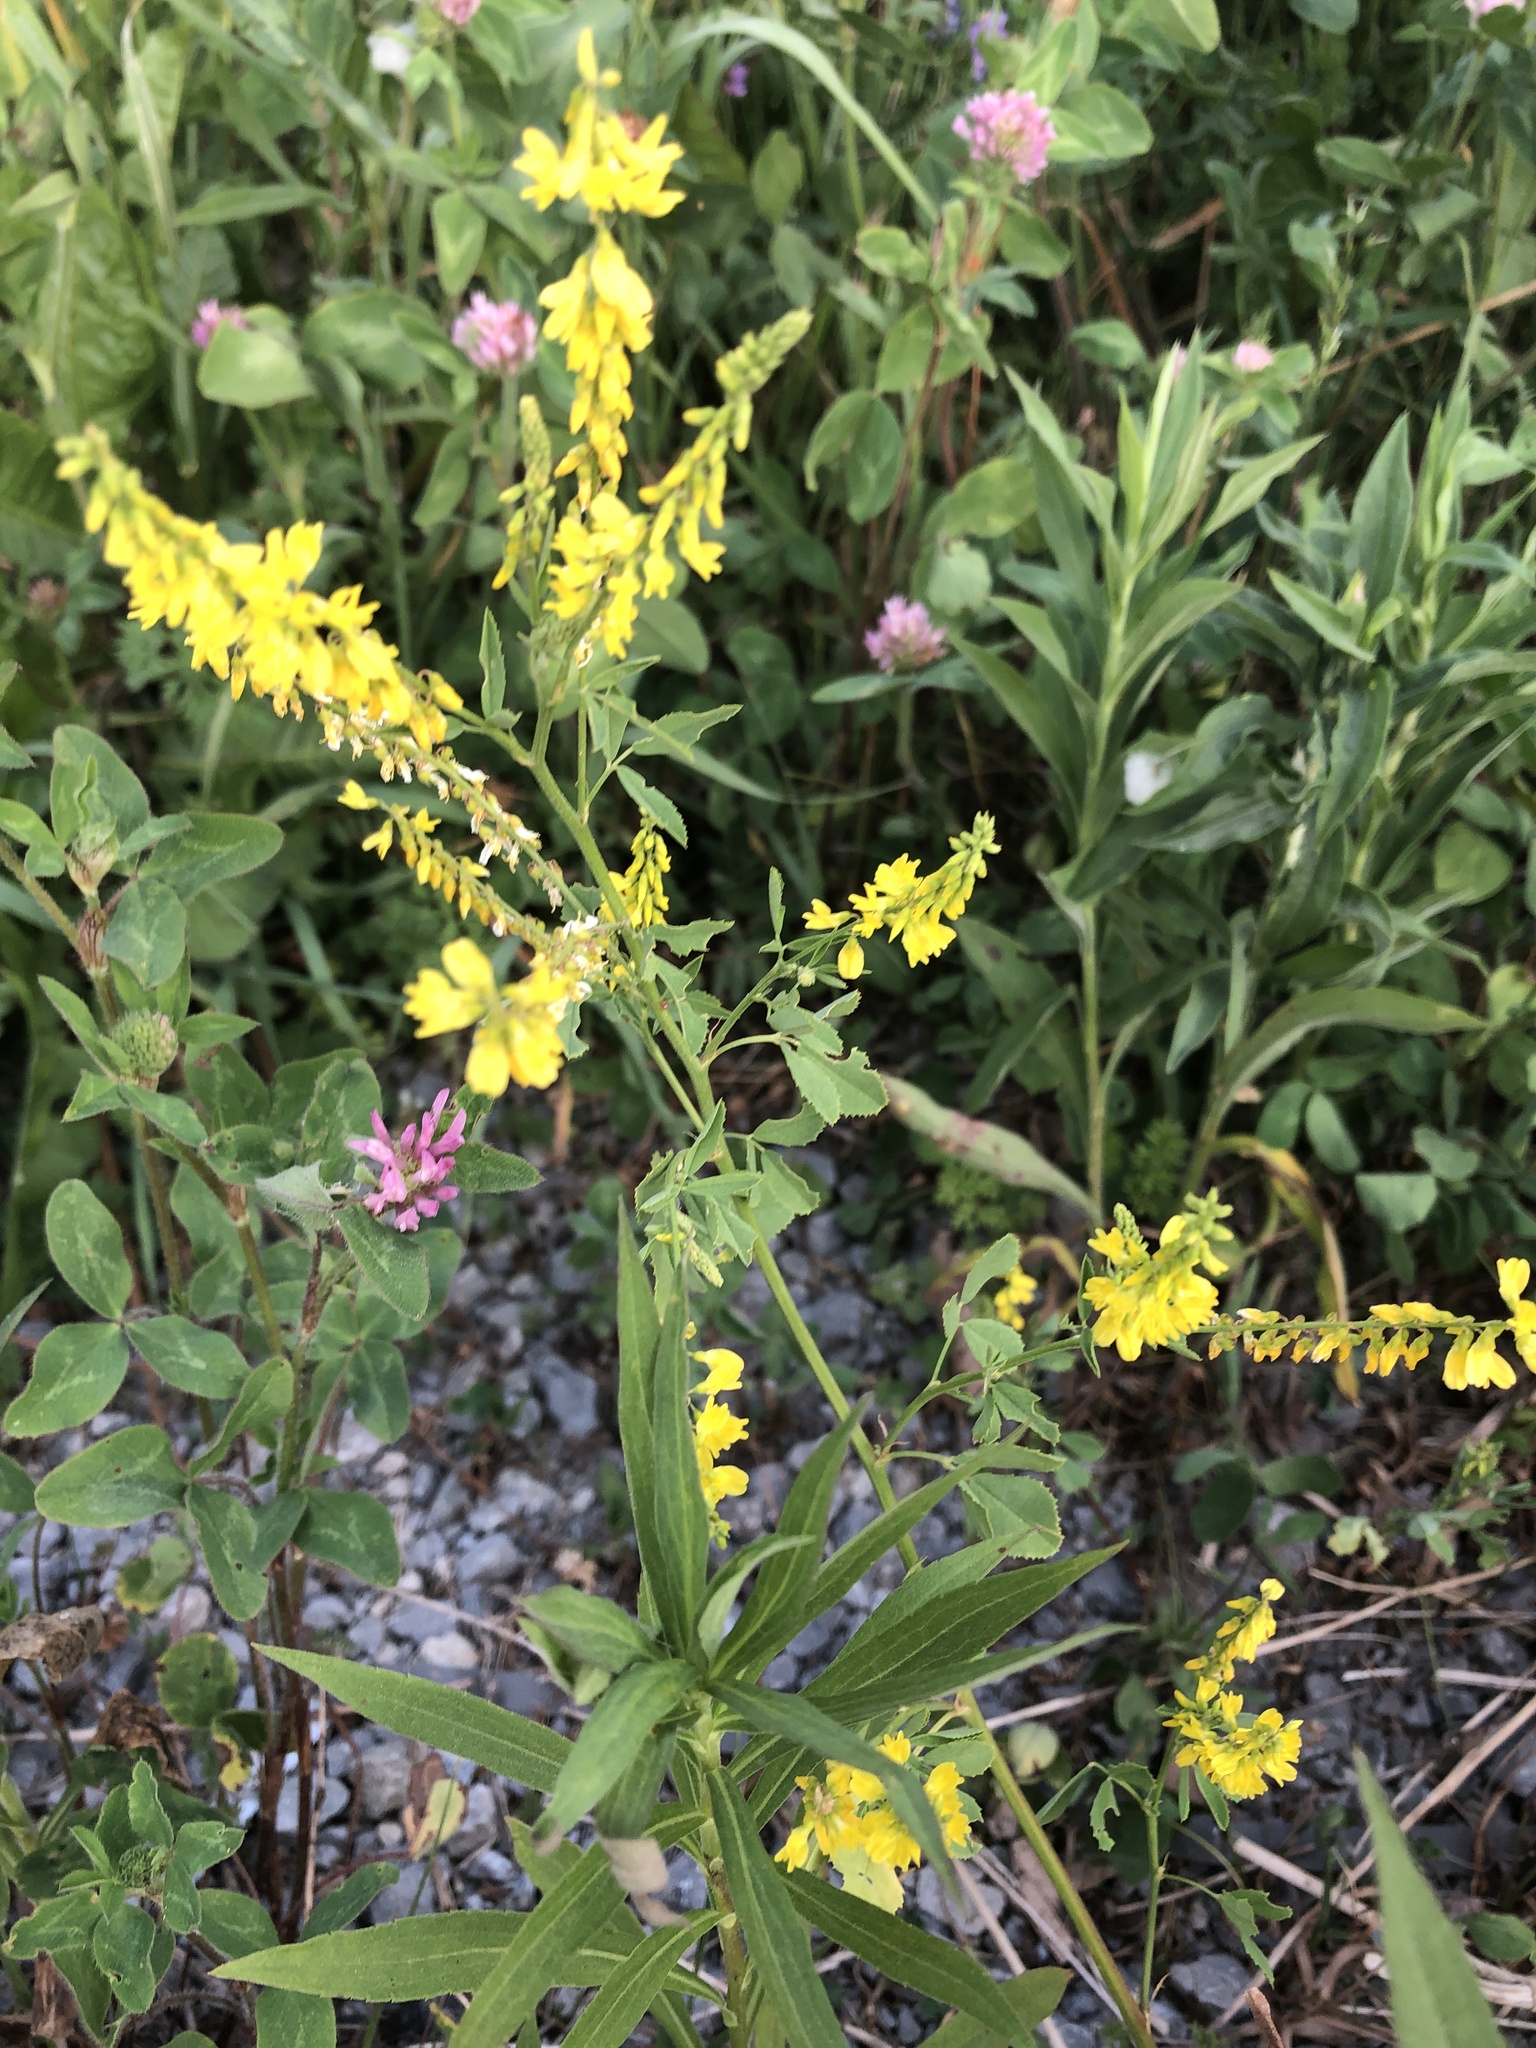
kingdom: Plantae
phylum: Tracheophyta
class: Magnoliopsida
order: Fabales
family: Fabaceae
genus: Melilotus
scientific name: Melilotus officinalis
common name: Sweetclover
